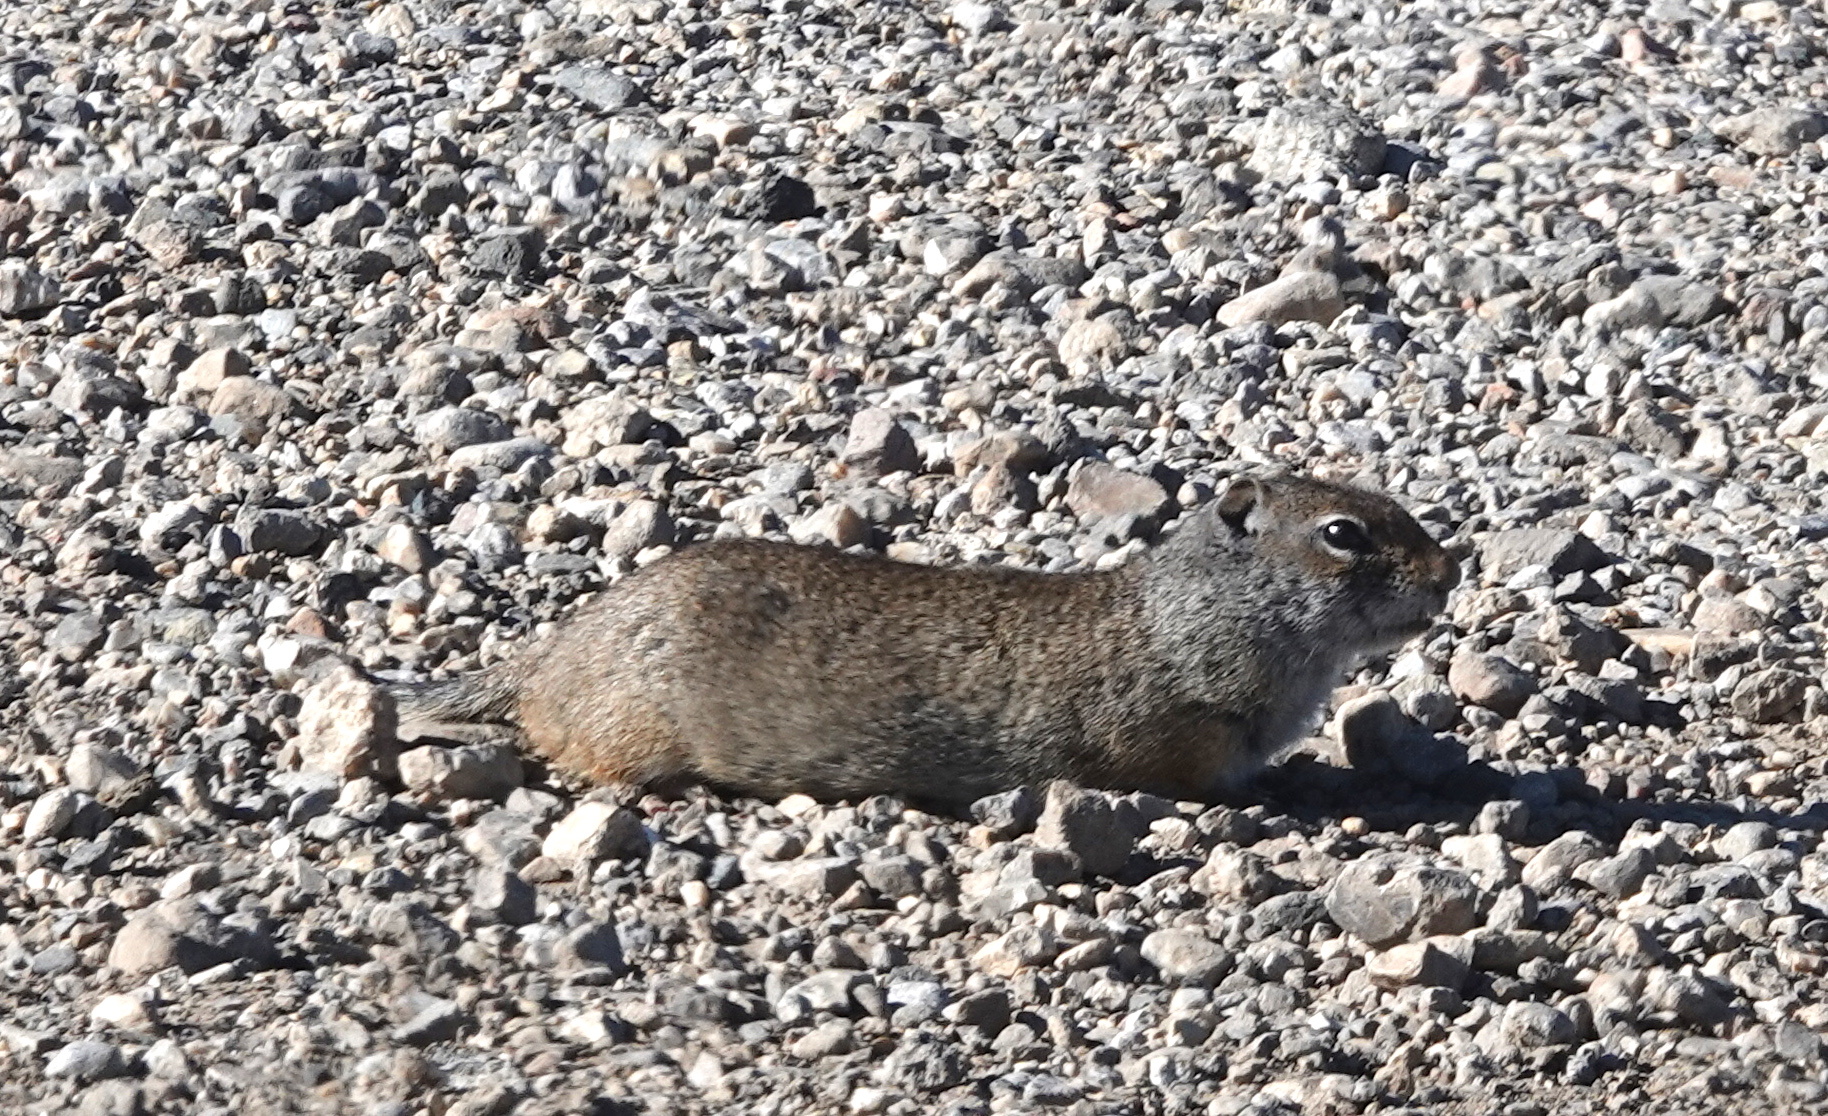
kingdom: Animalia
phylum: Chordata
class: Mammalia
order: Rodentia
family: Sciuridae
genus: Urocitellus
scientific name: Urocitellus armatus
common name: Uinta ground squirrel
